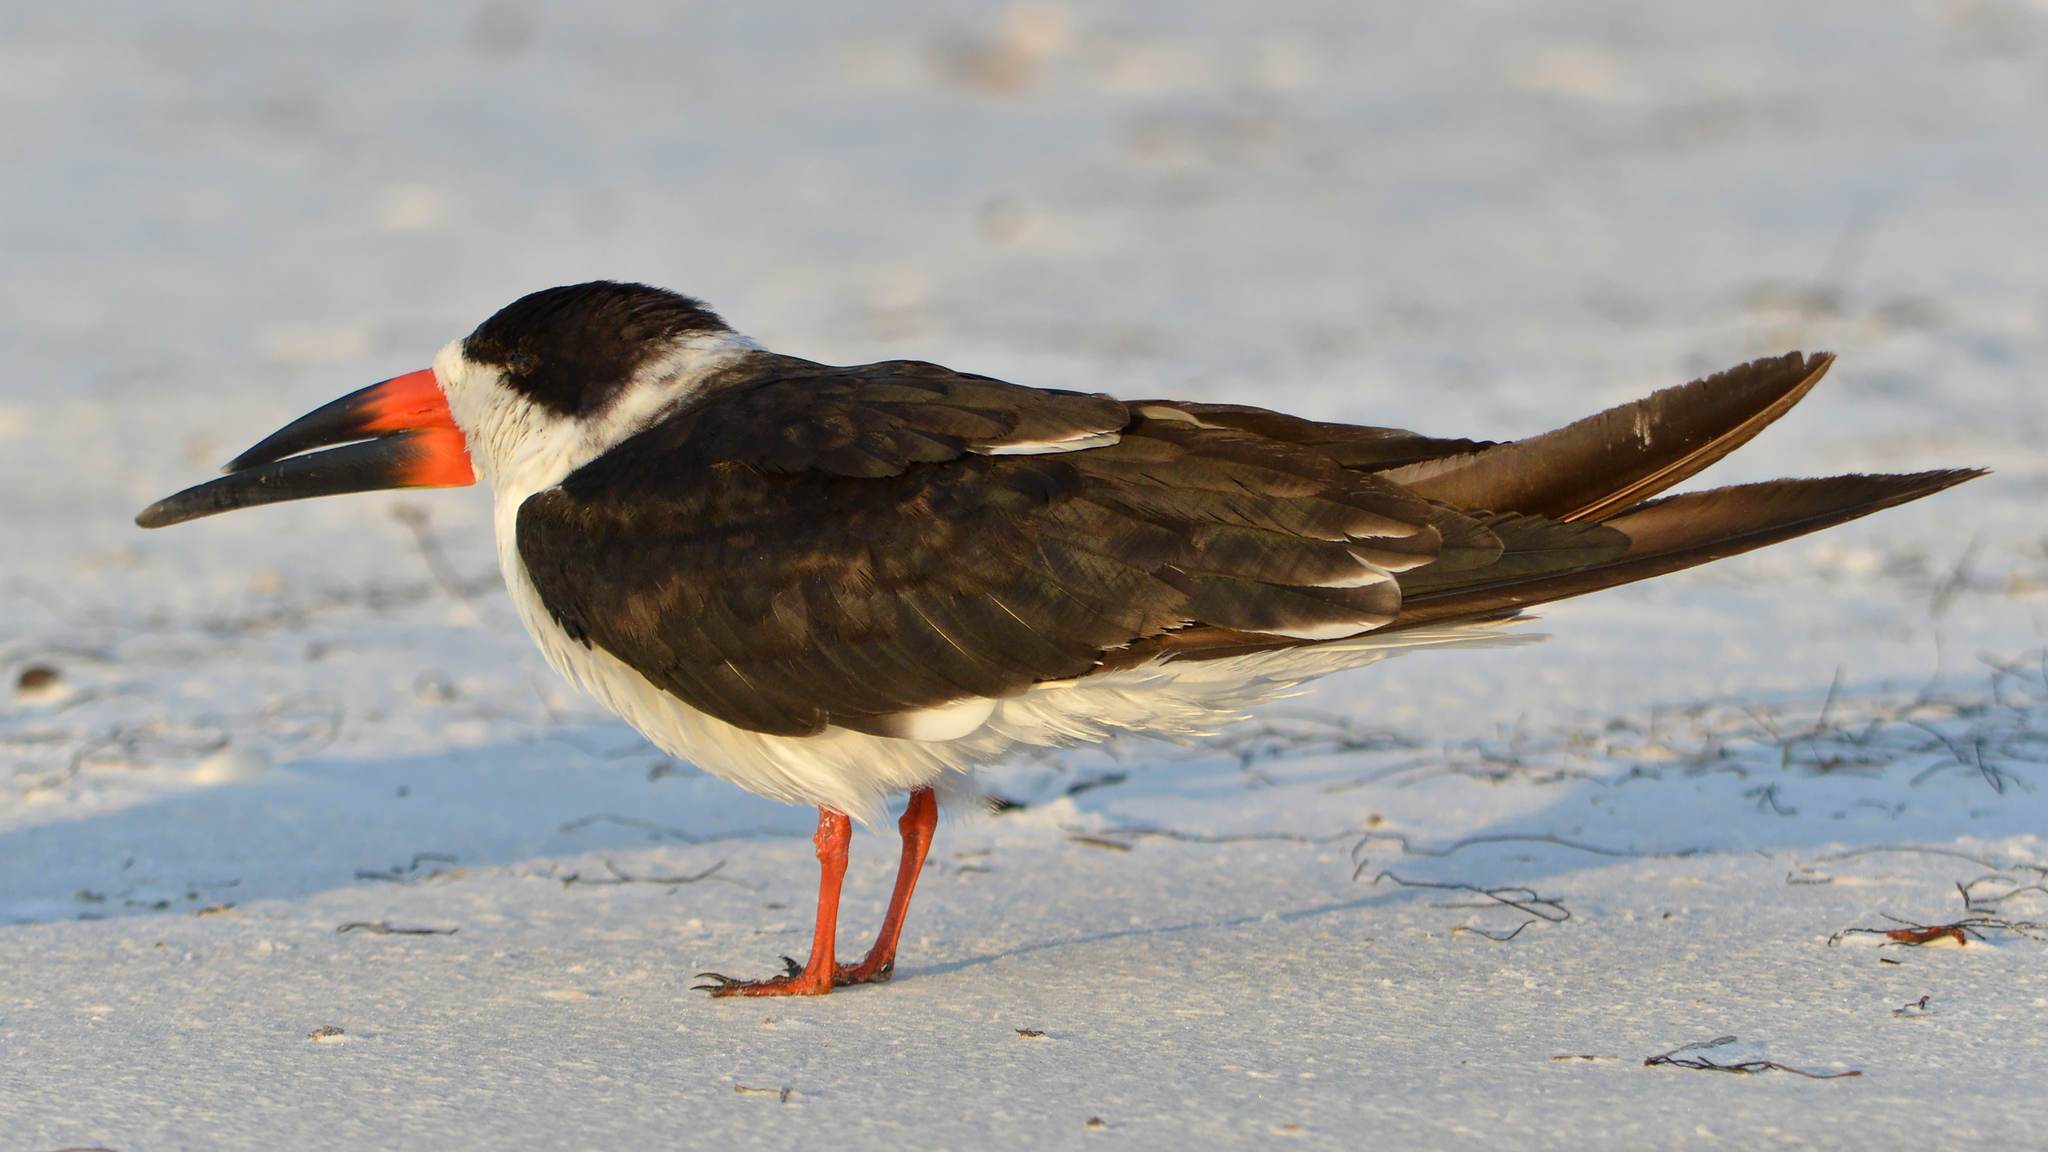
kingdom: Animalia
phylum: Chordata
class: Aves
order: Charadriiformes
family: Laridae
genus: Rynchops
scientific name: Rynchops niger
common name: Black skimmer
